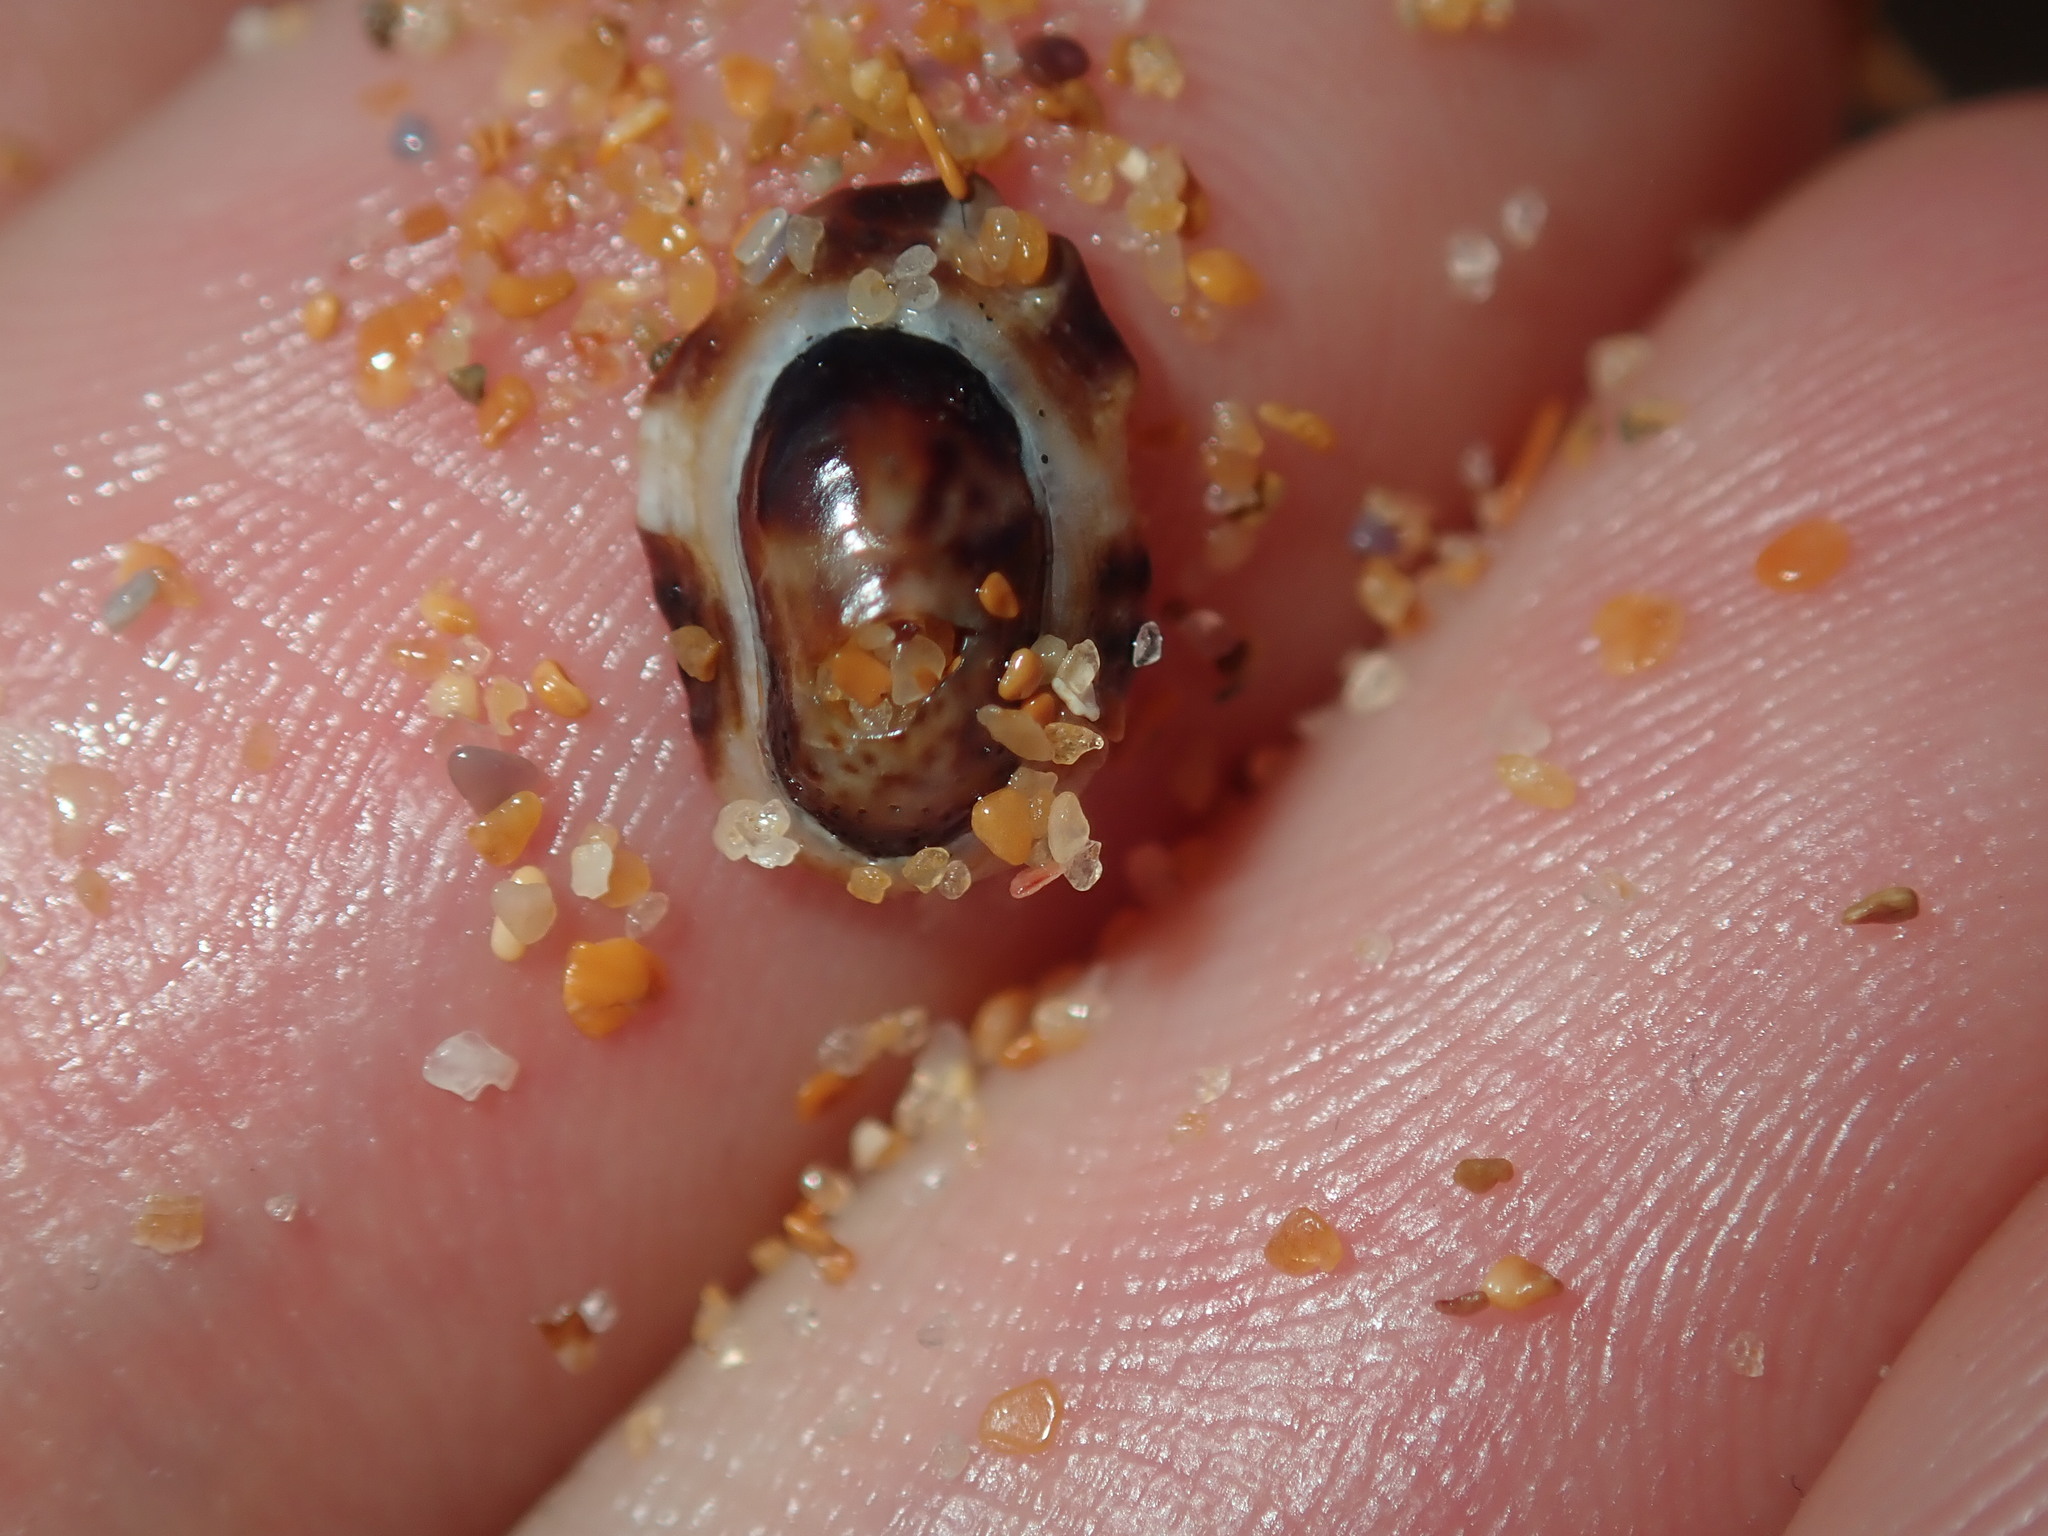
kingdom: Animalia
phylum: Mollusca
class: Gastropoda
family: Lottiidae
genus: Patelloida
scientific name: Patelloida latistrigata
